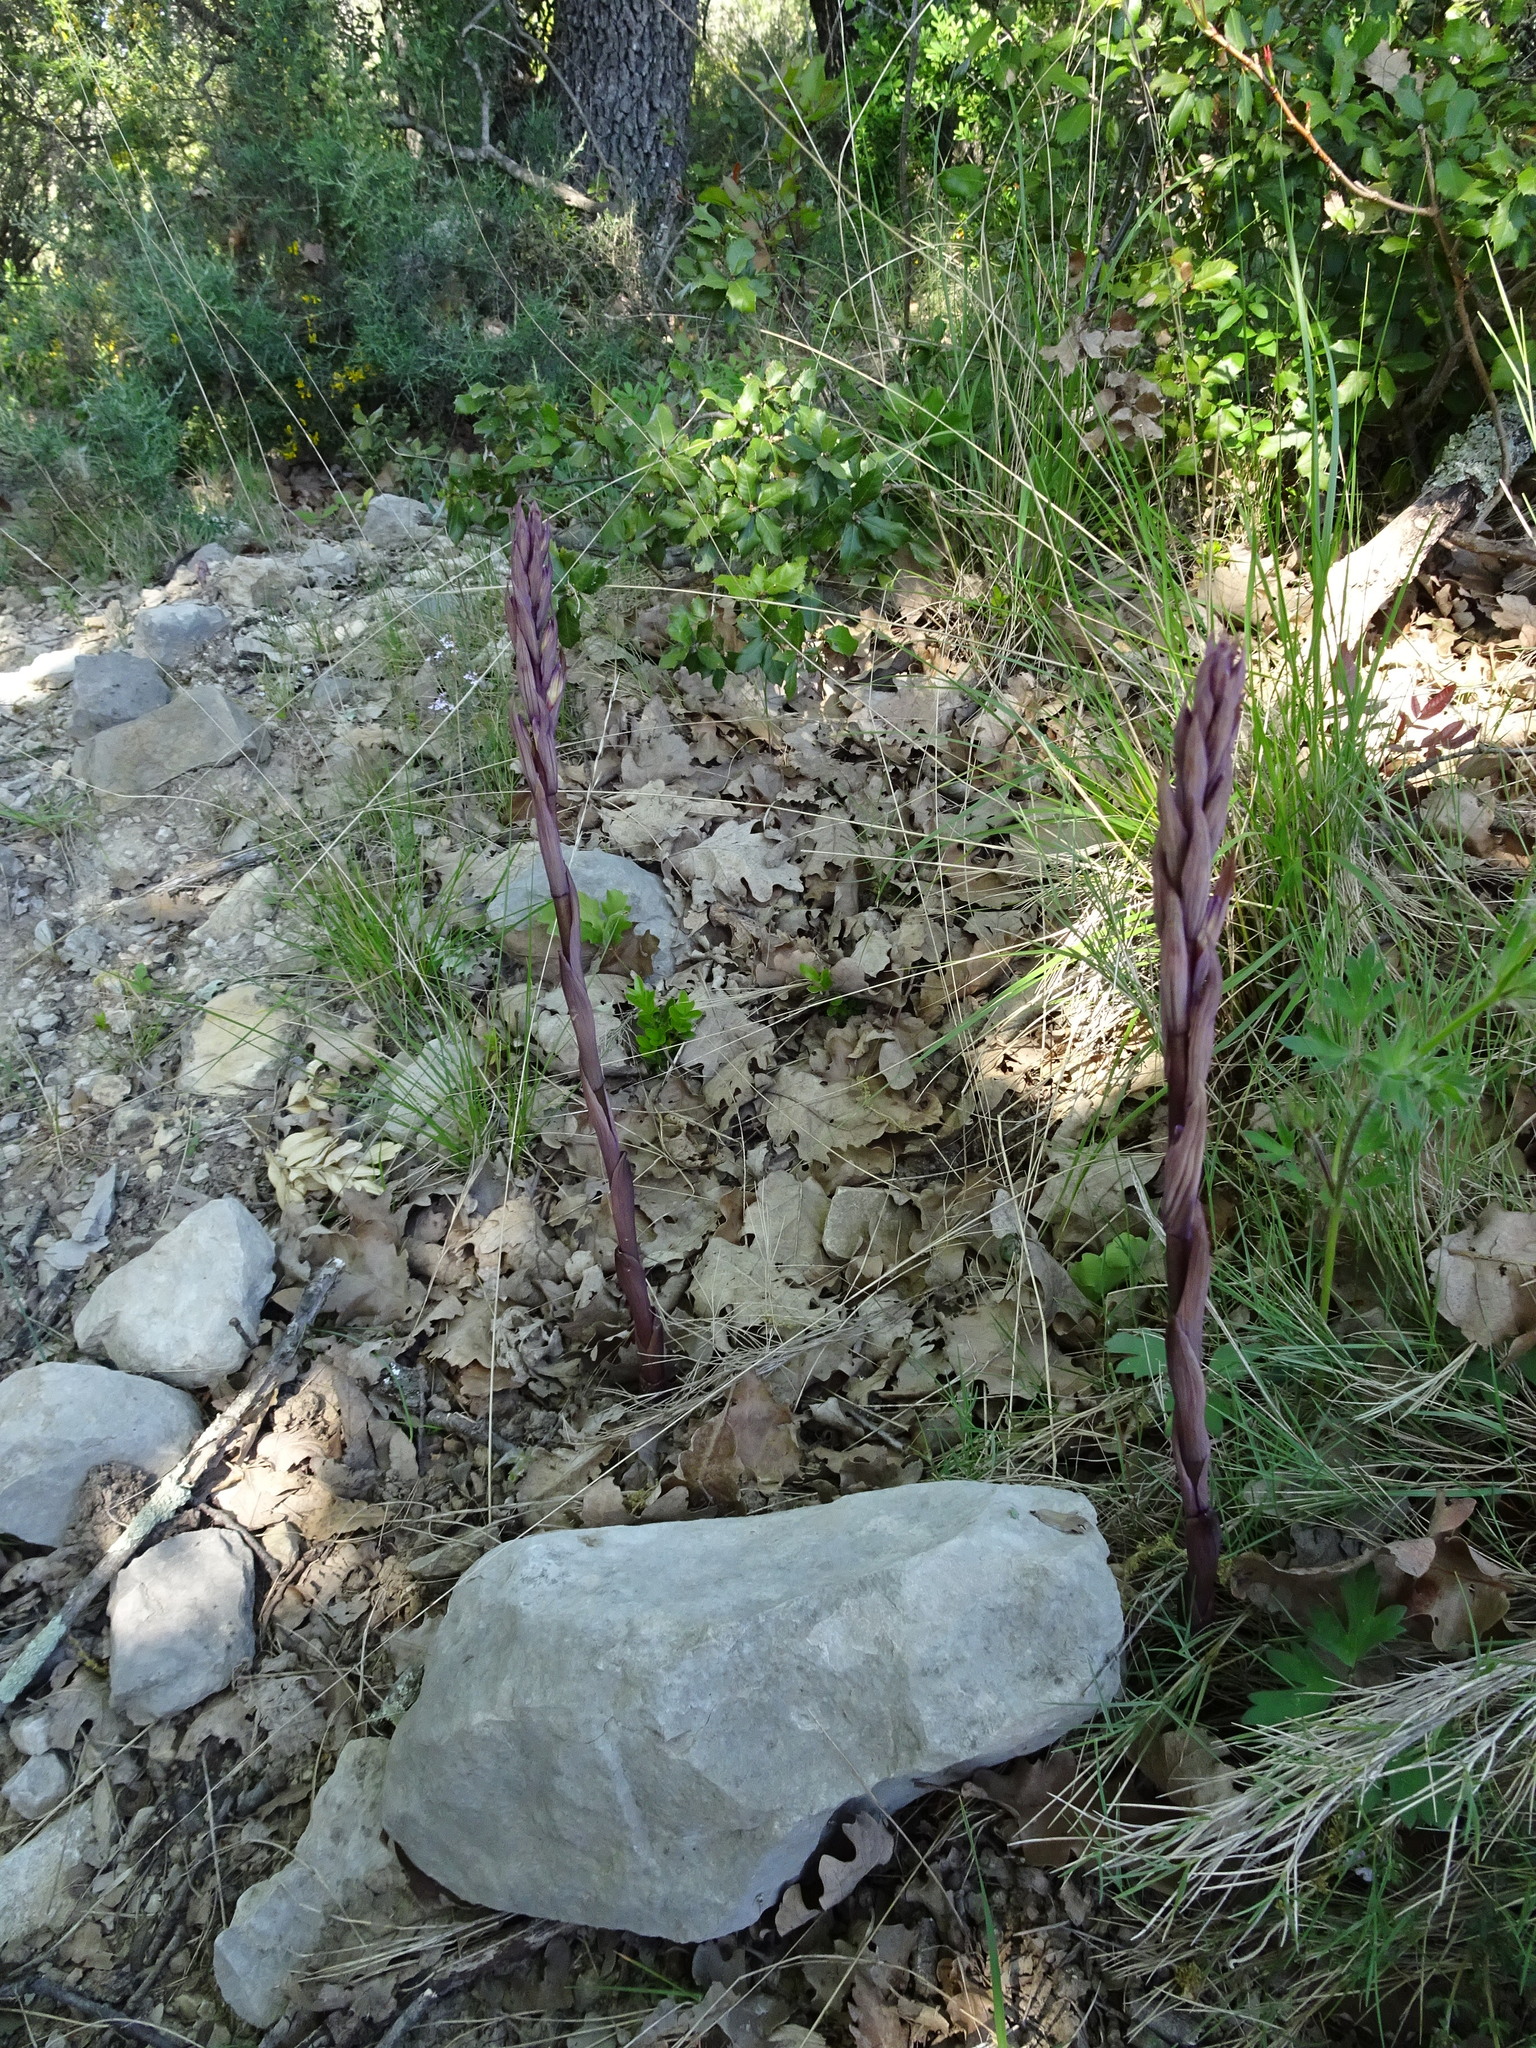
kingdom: Plantae
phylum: Tracheophyta
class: Liliopsida
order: Asparagales
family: Orchidaceae
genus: Limodorum
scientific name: Limodorum abortivum
